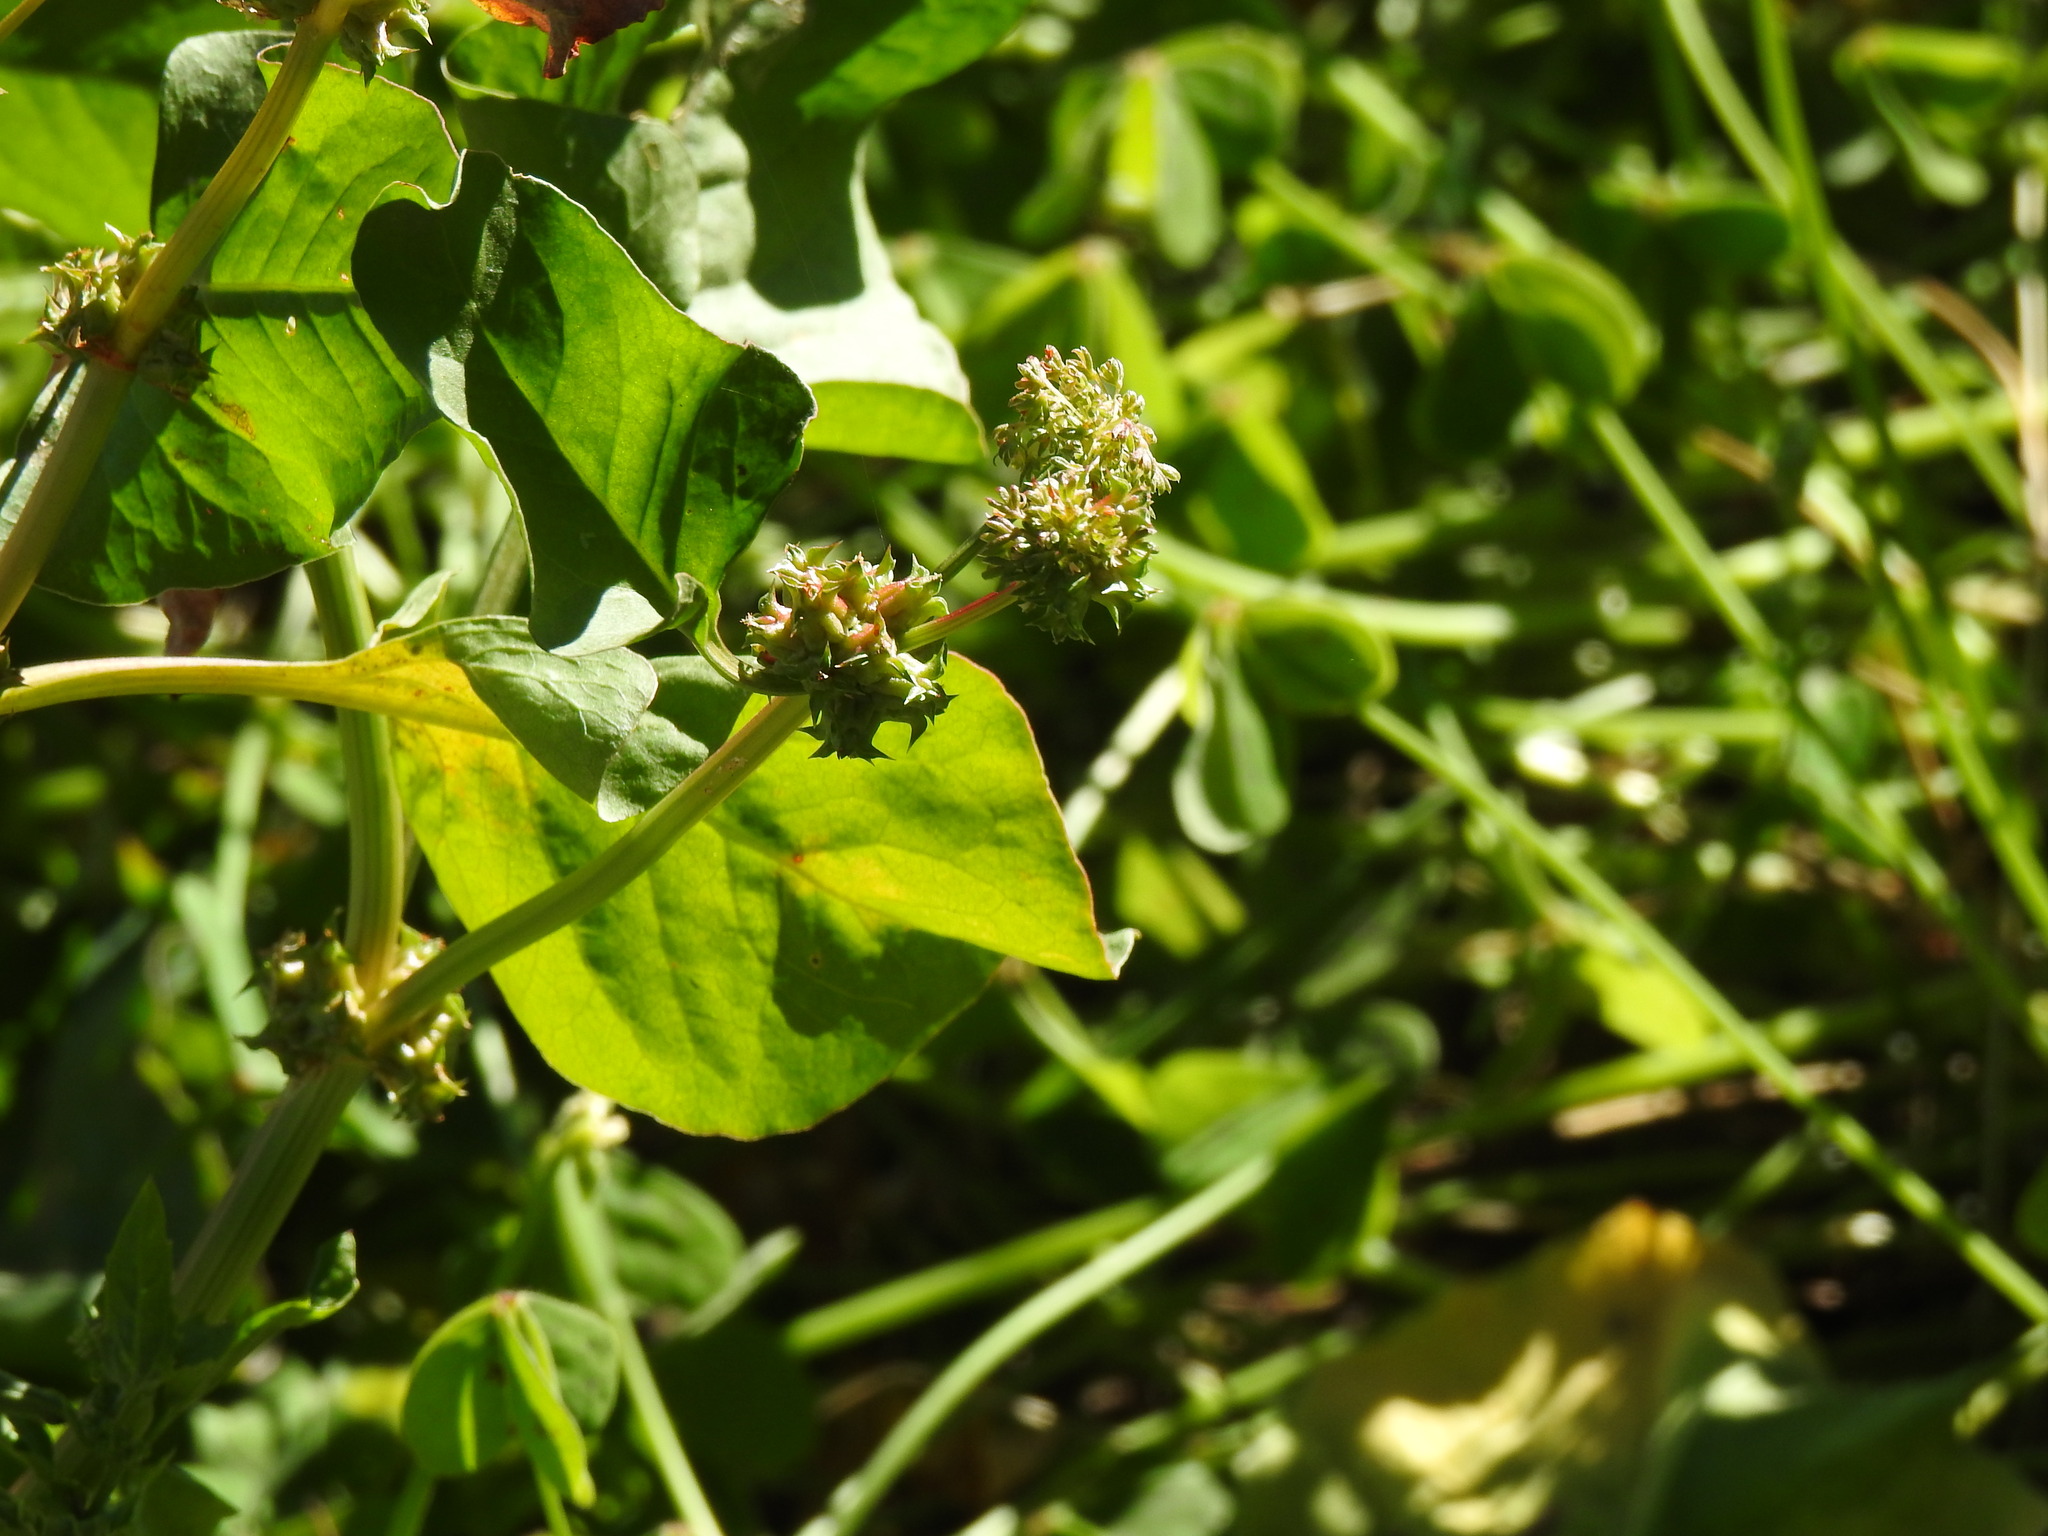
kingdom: Plantae
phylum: Tracheophyta
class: Magnoliopsida
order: Caryophyllales
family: Polygonaceae
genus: Rumex
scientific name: Rumex spinosus
